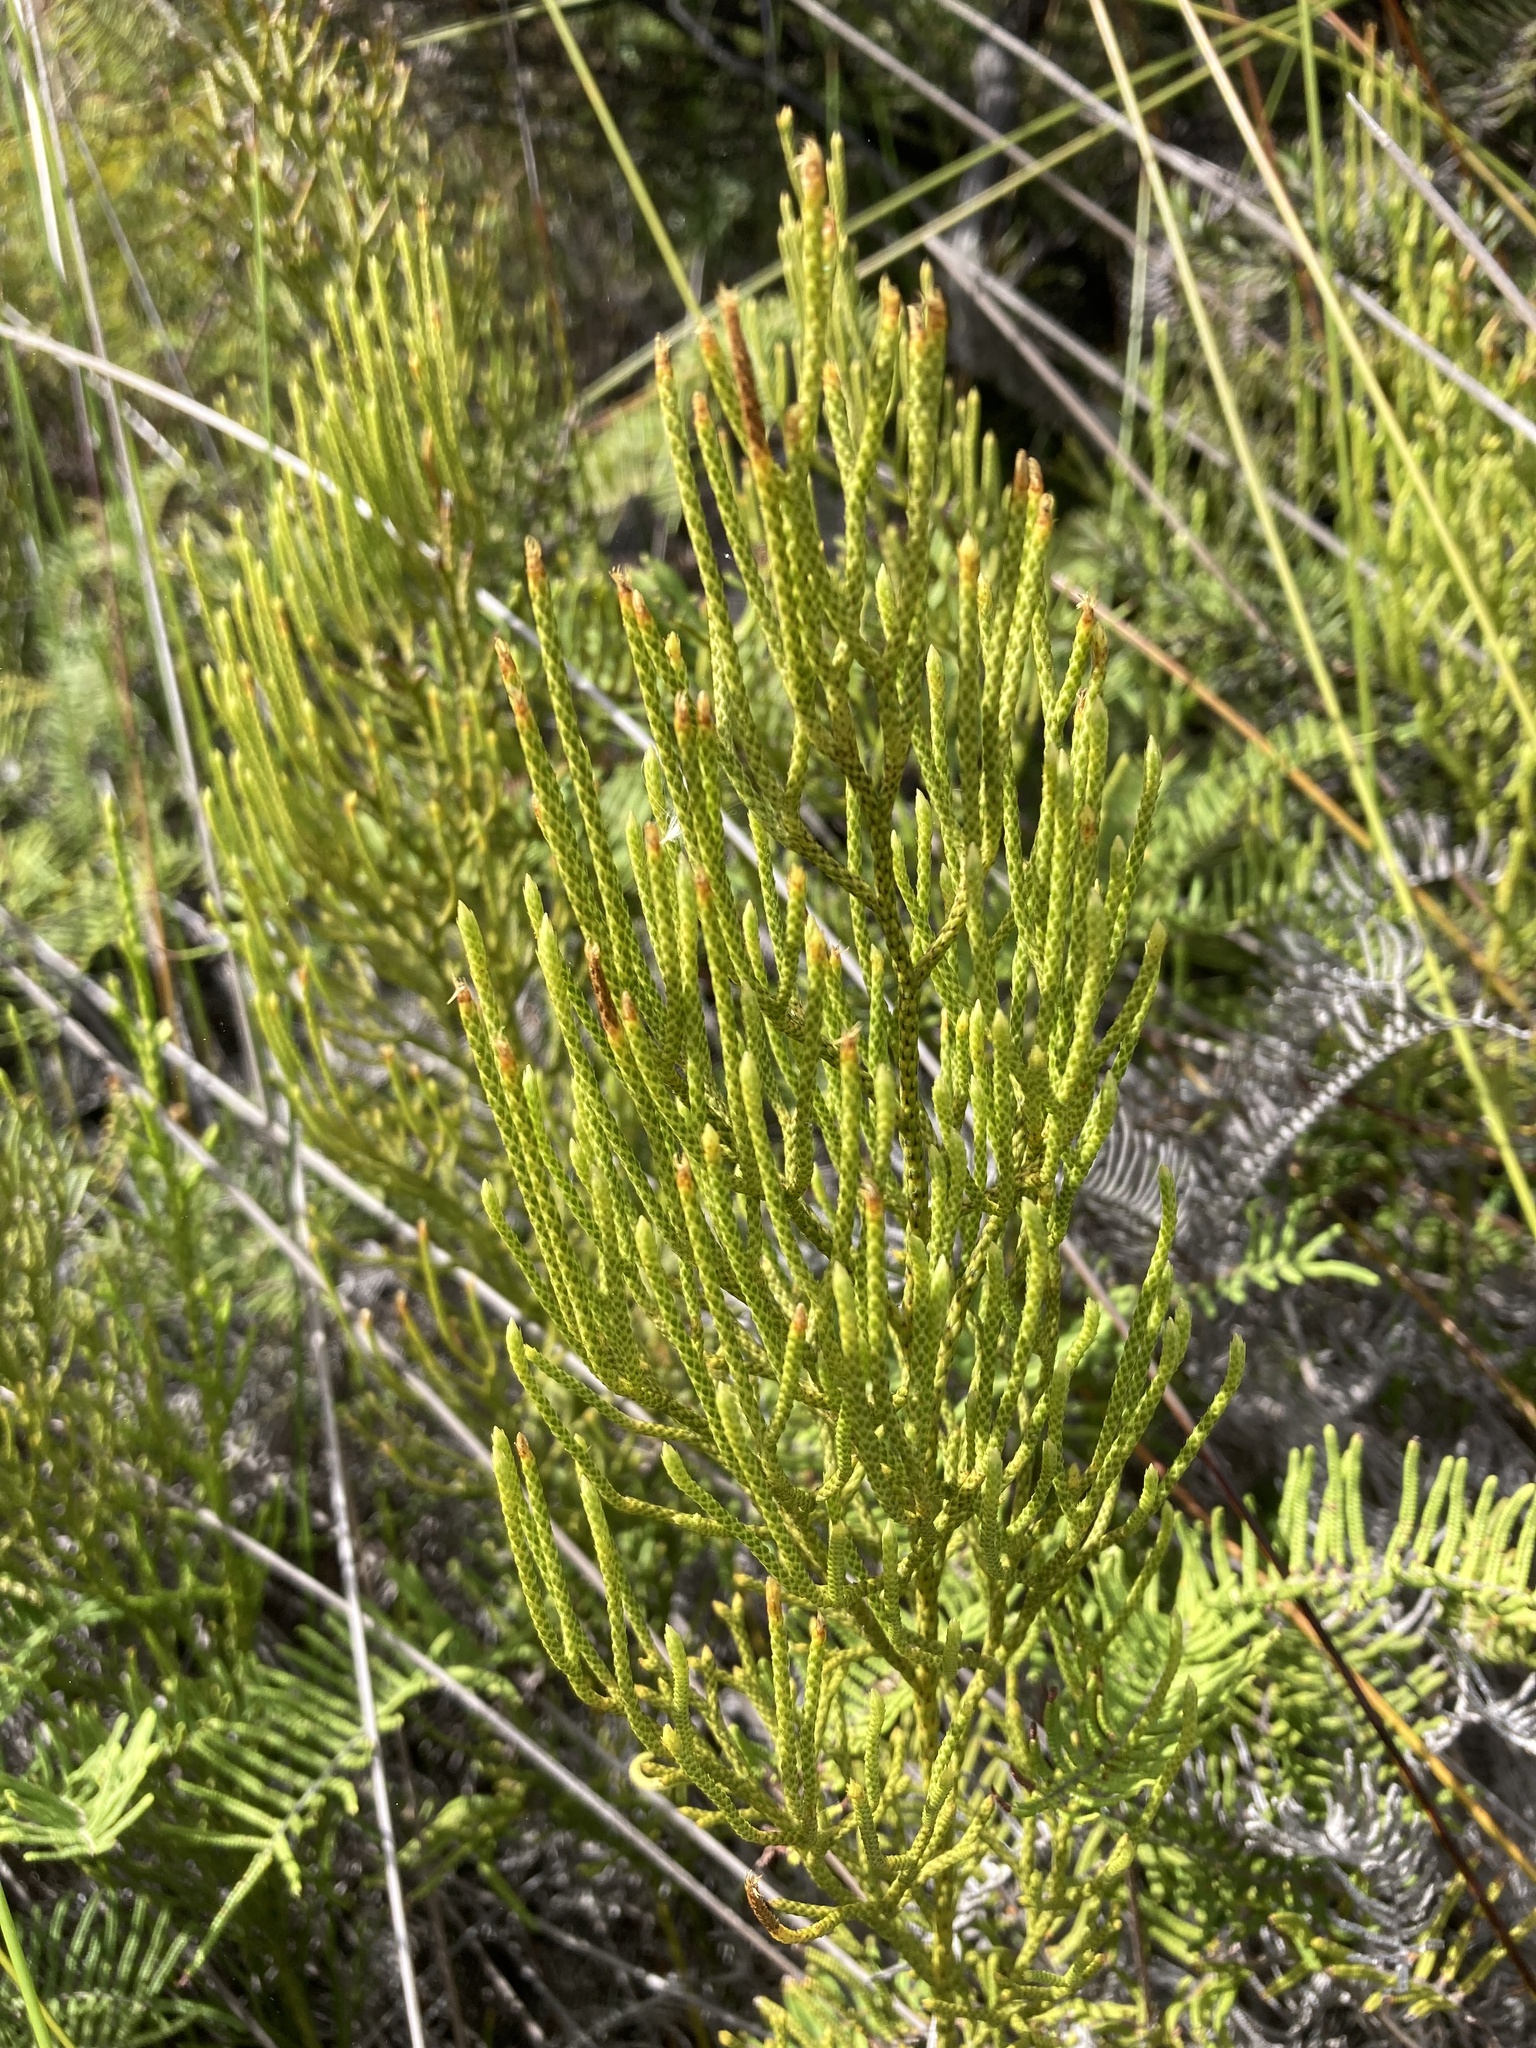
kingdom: Plantae
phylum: Tracheophyta
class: Lycopodiopsida
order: Lycopodiales
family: Lycopodiaceae
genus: Pseudolycopodium
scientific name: Pseudolycopodium densum
